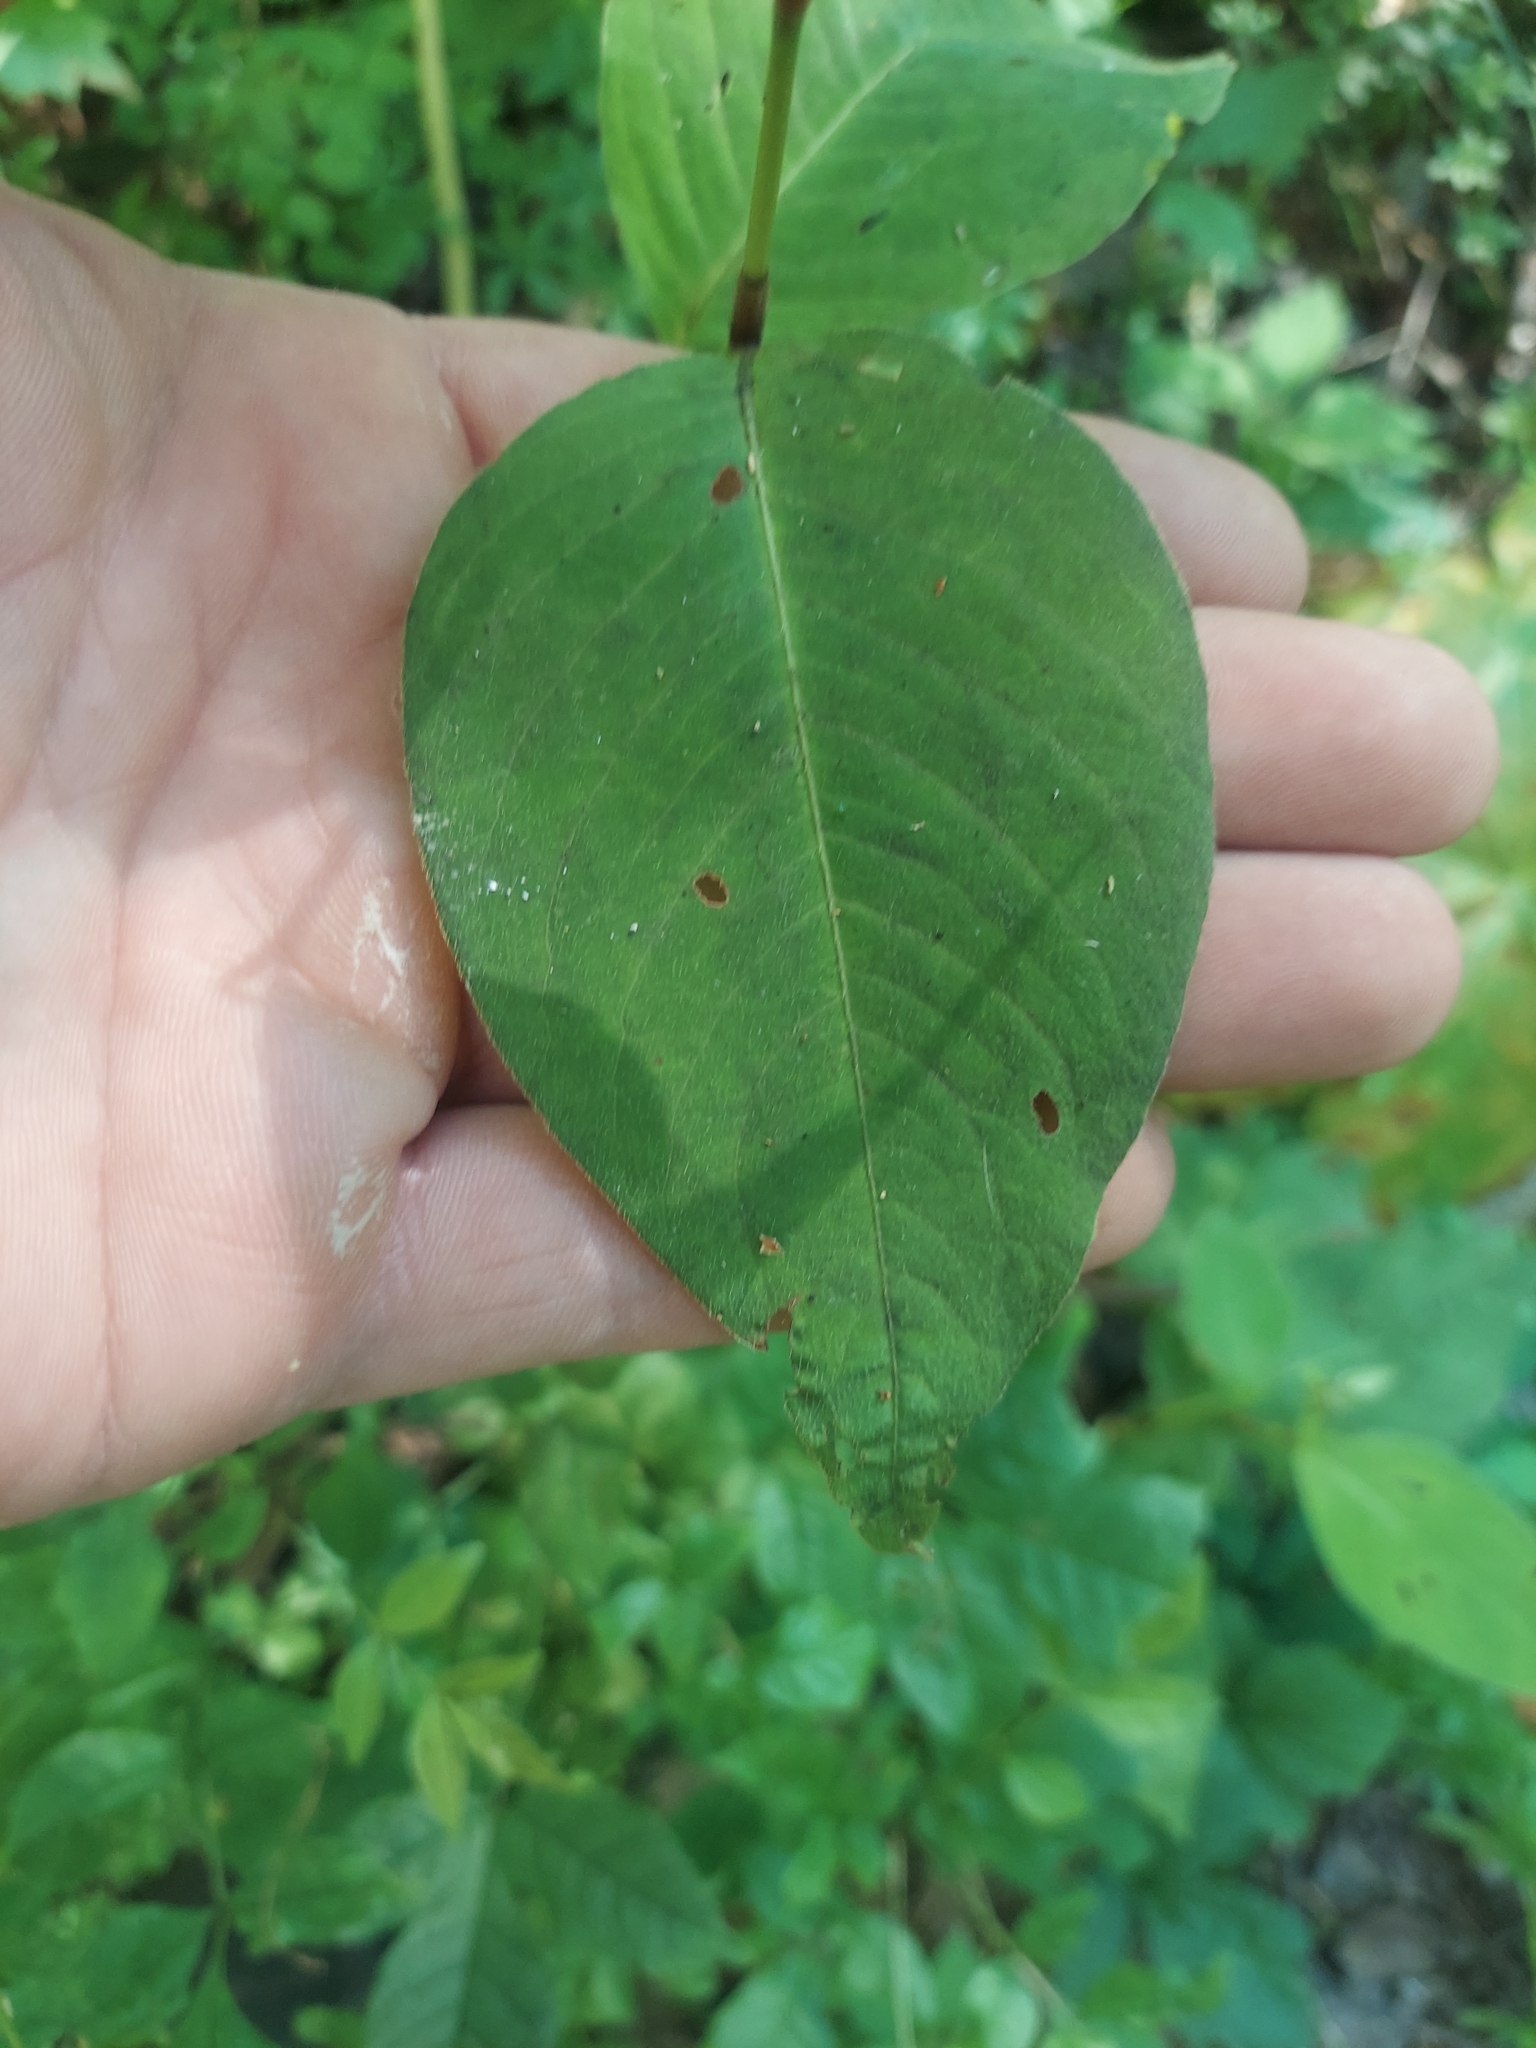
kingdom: Plantae
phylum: Tracheophyta
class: Magnoliopsida
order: Caryophyllales
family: Polygonaceae
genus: Persicaria
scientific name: Persicaria virginiana
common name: Jumpseed
